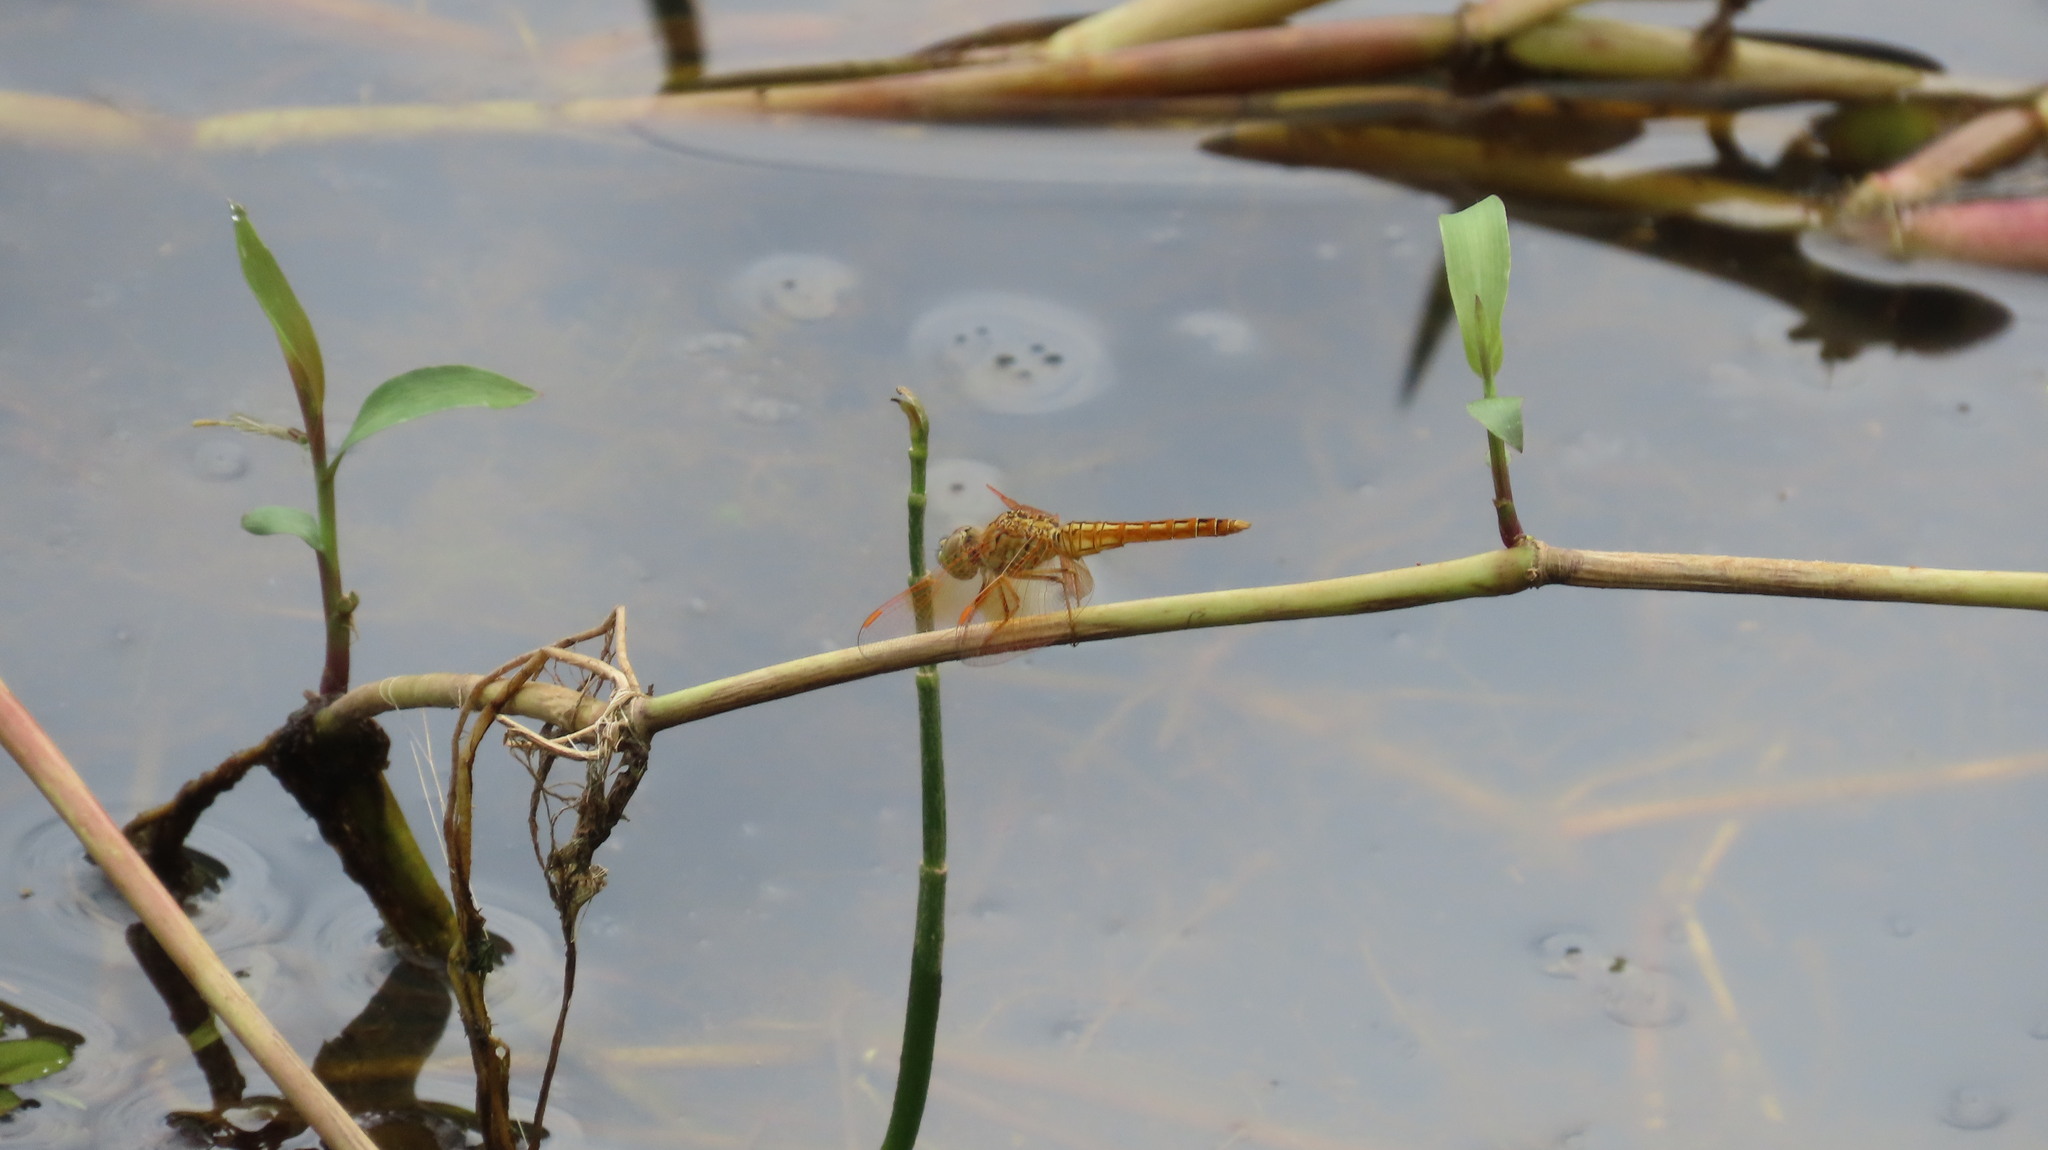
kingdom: Animalia
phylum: Arthropoda
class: Insecta
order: Odonata
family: Libellulidae
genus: Brachythemis
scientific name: Brachythemis contaminata
